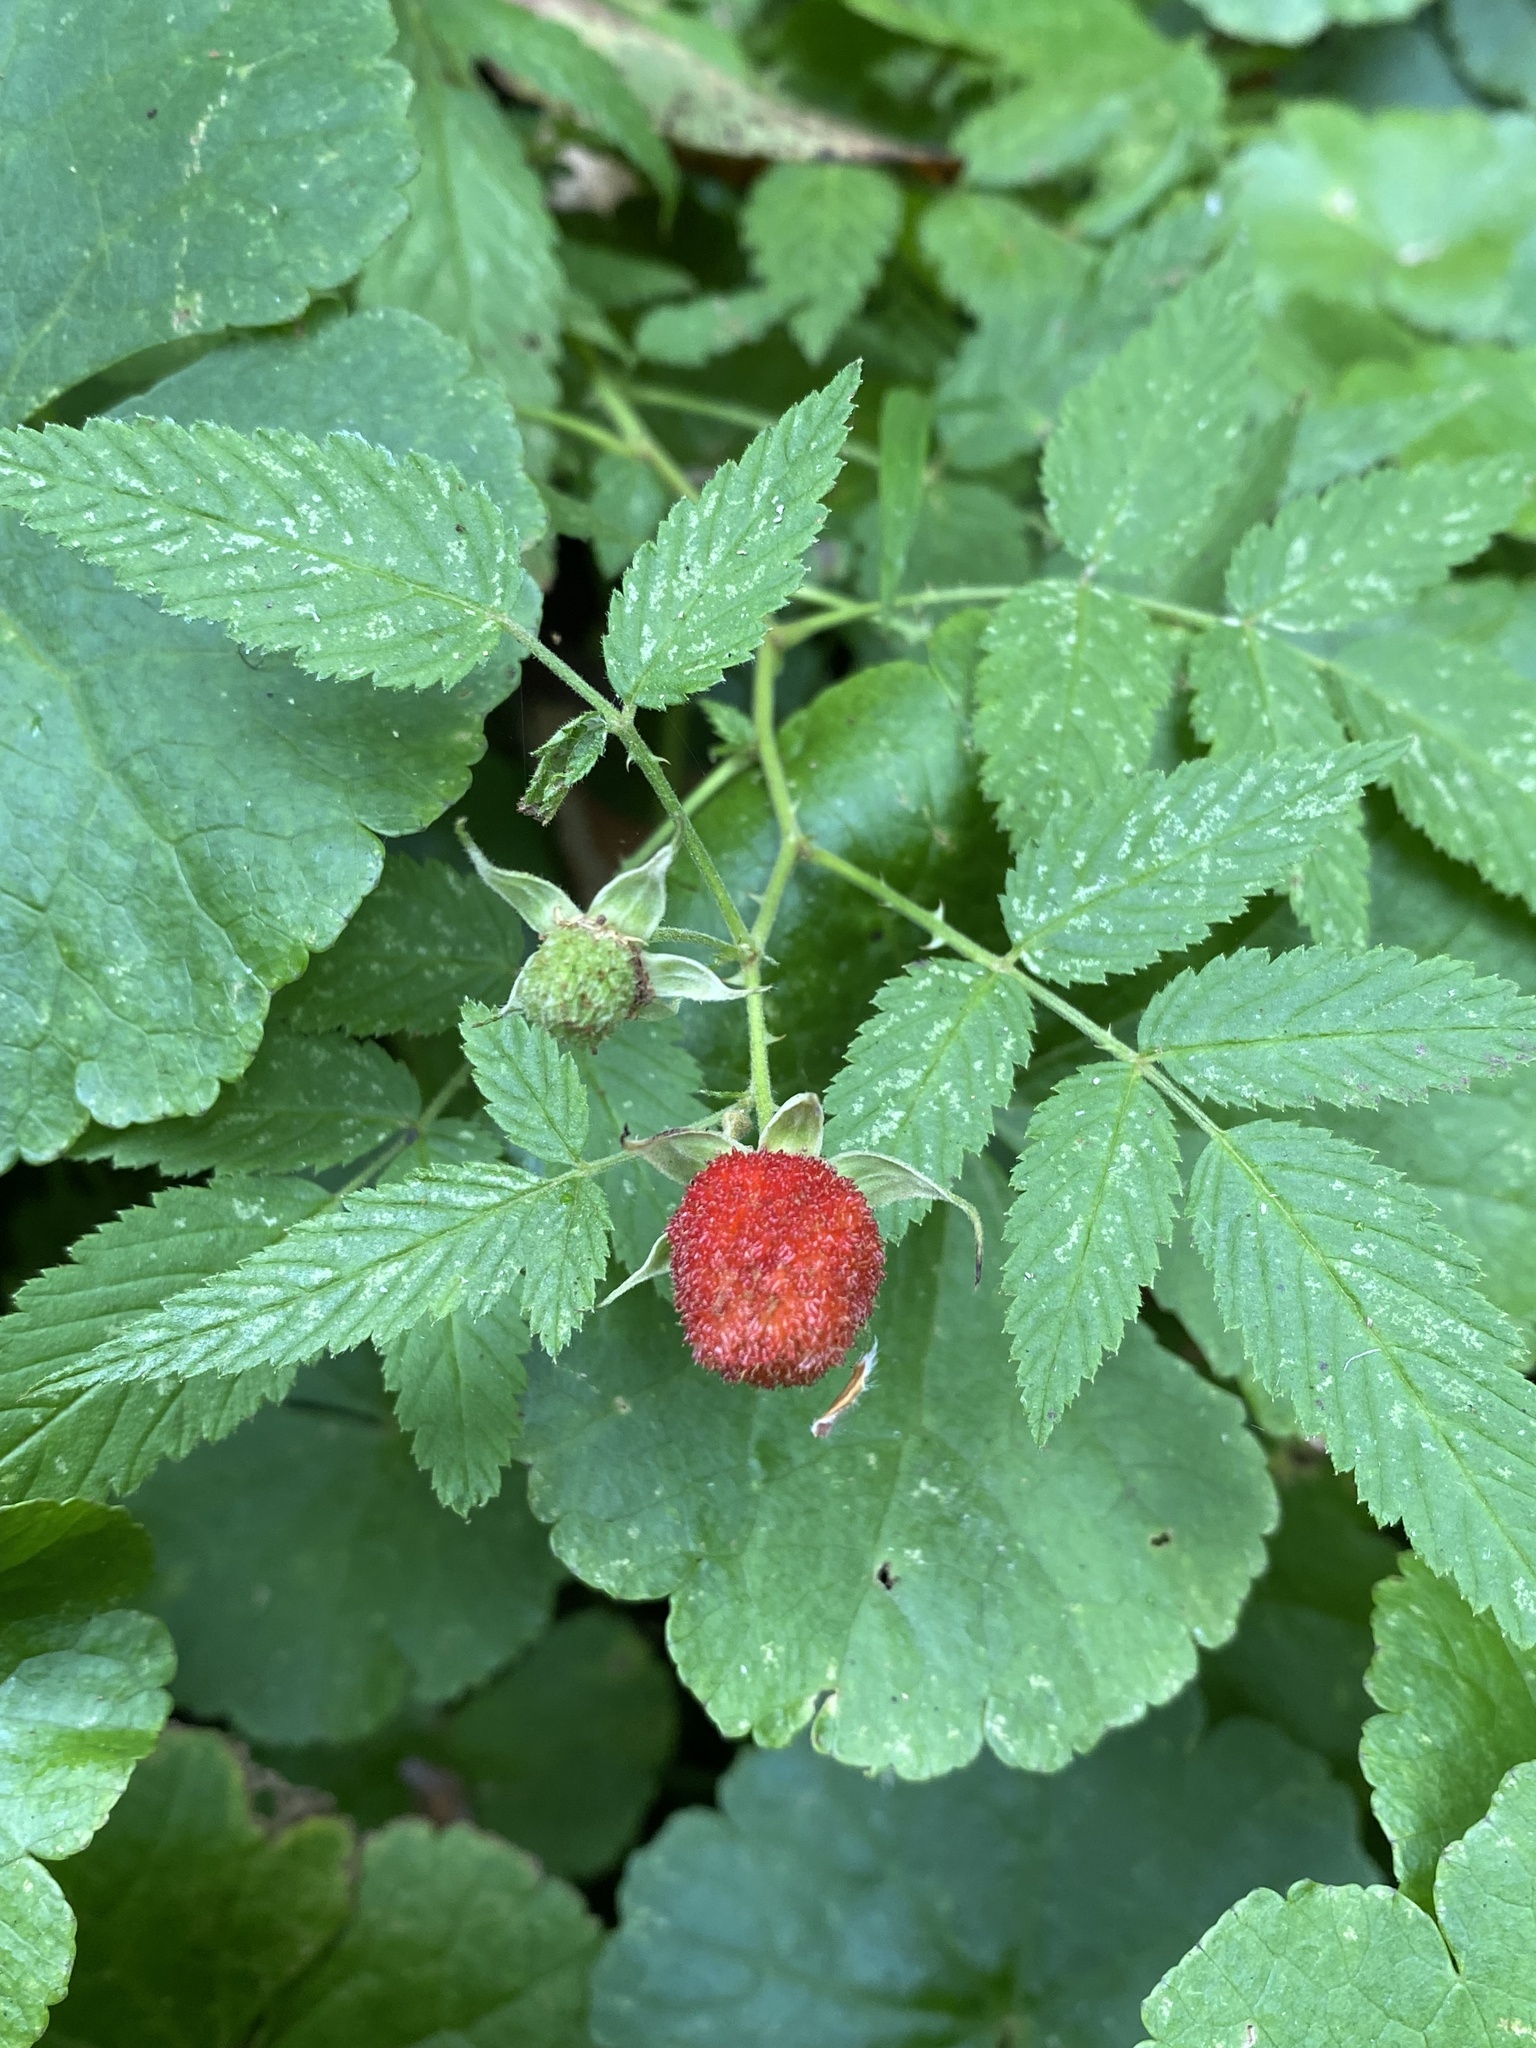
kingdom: Plantae
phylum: Tracheophyta
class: Magnoliopsida
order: Rosales
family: Rosaceae
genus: Rubus
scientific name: Rubus rosifolius
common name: Roseleaf raspberry
